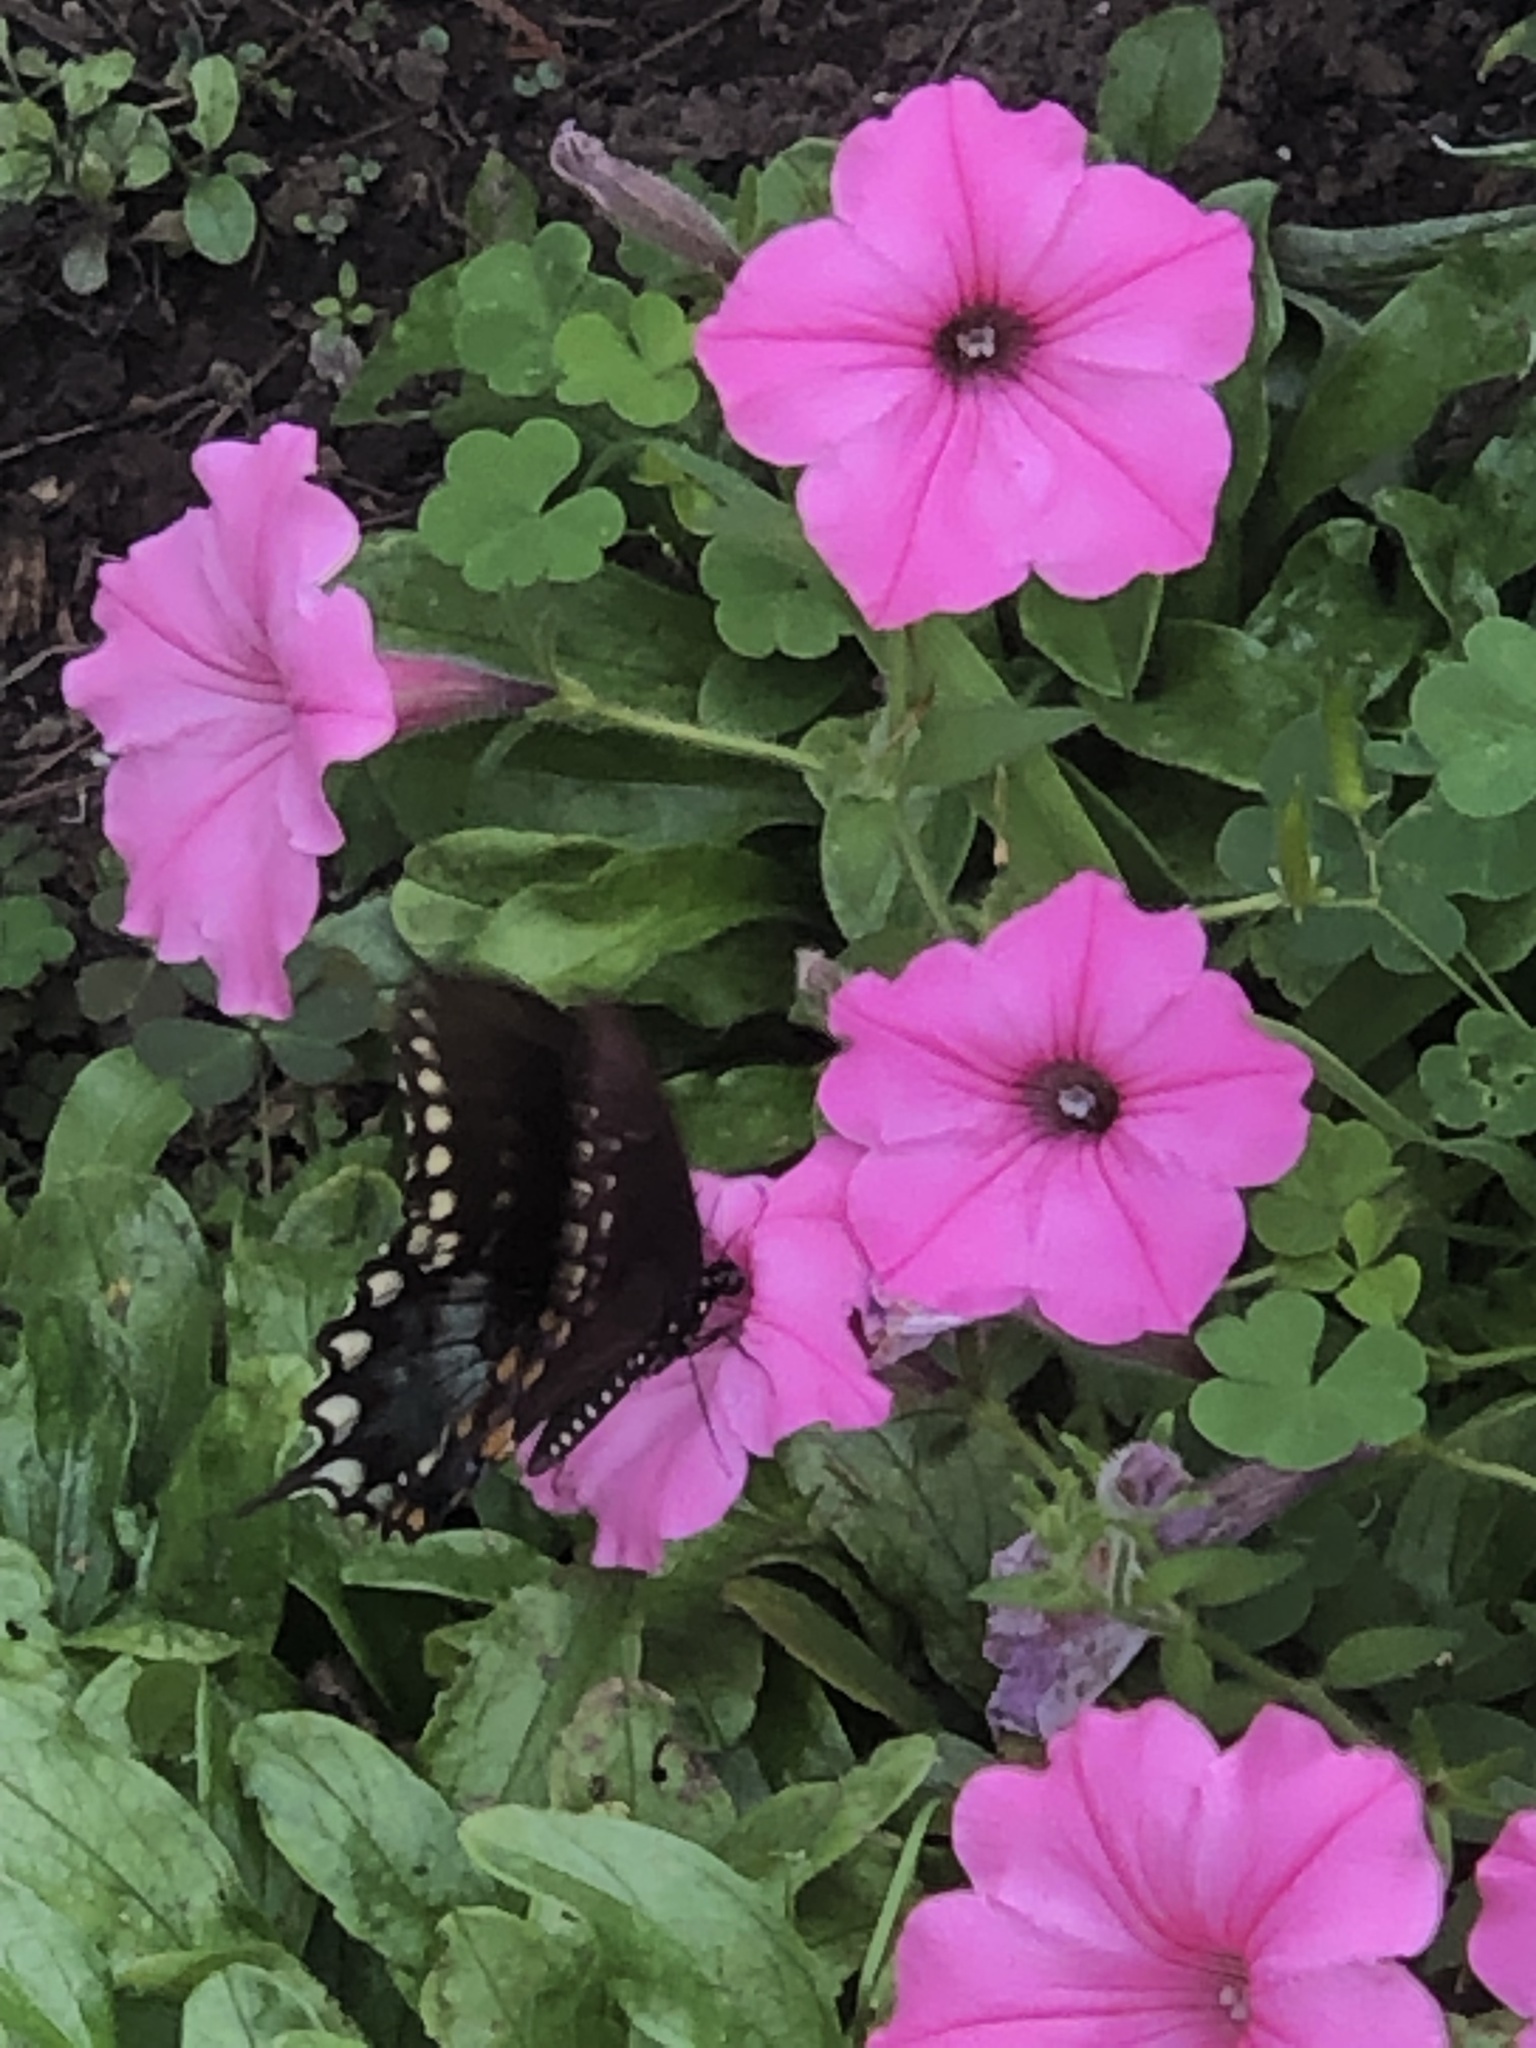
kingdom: Animalia
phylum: Arthropoda
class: Insecta
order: Lepidoptera
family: Papilionidae
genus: Papilio
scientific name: Papilio troilus
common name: Spicebush swallowtail
